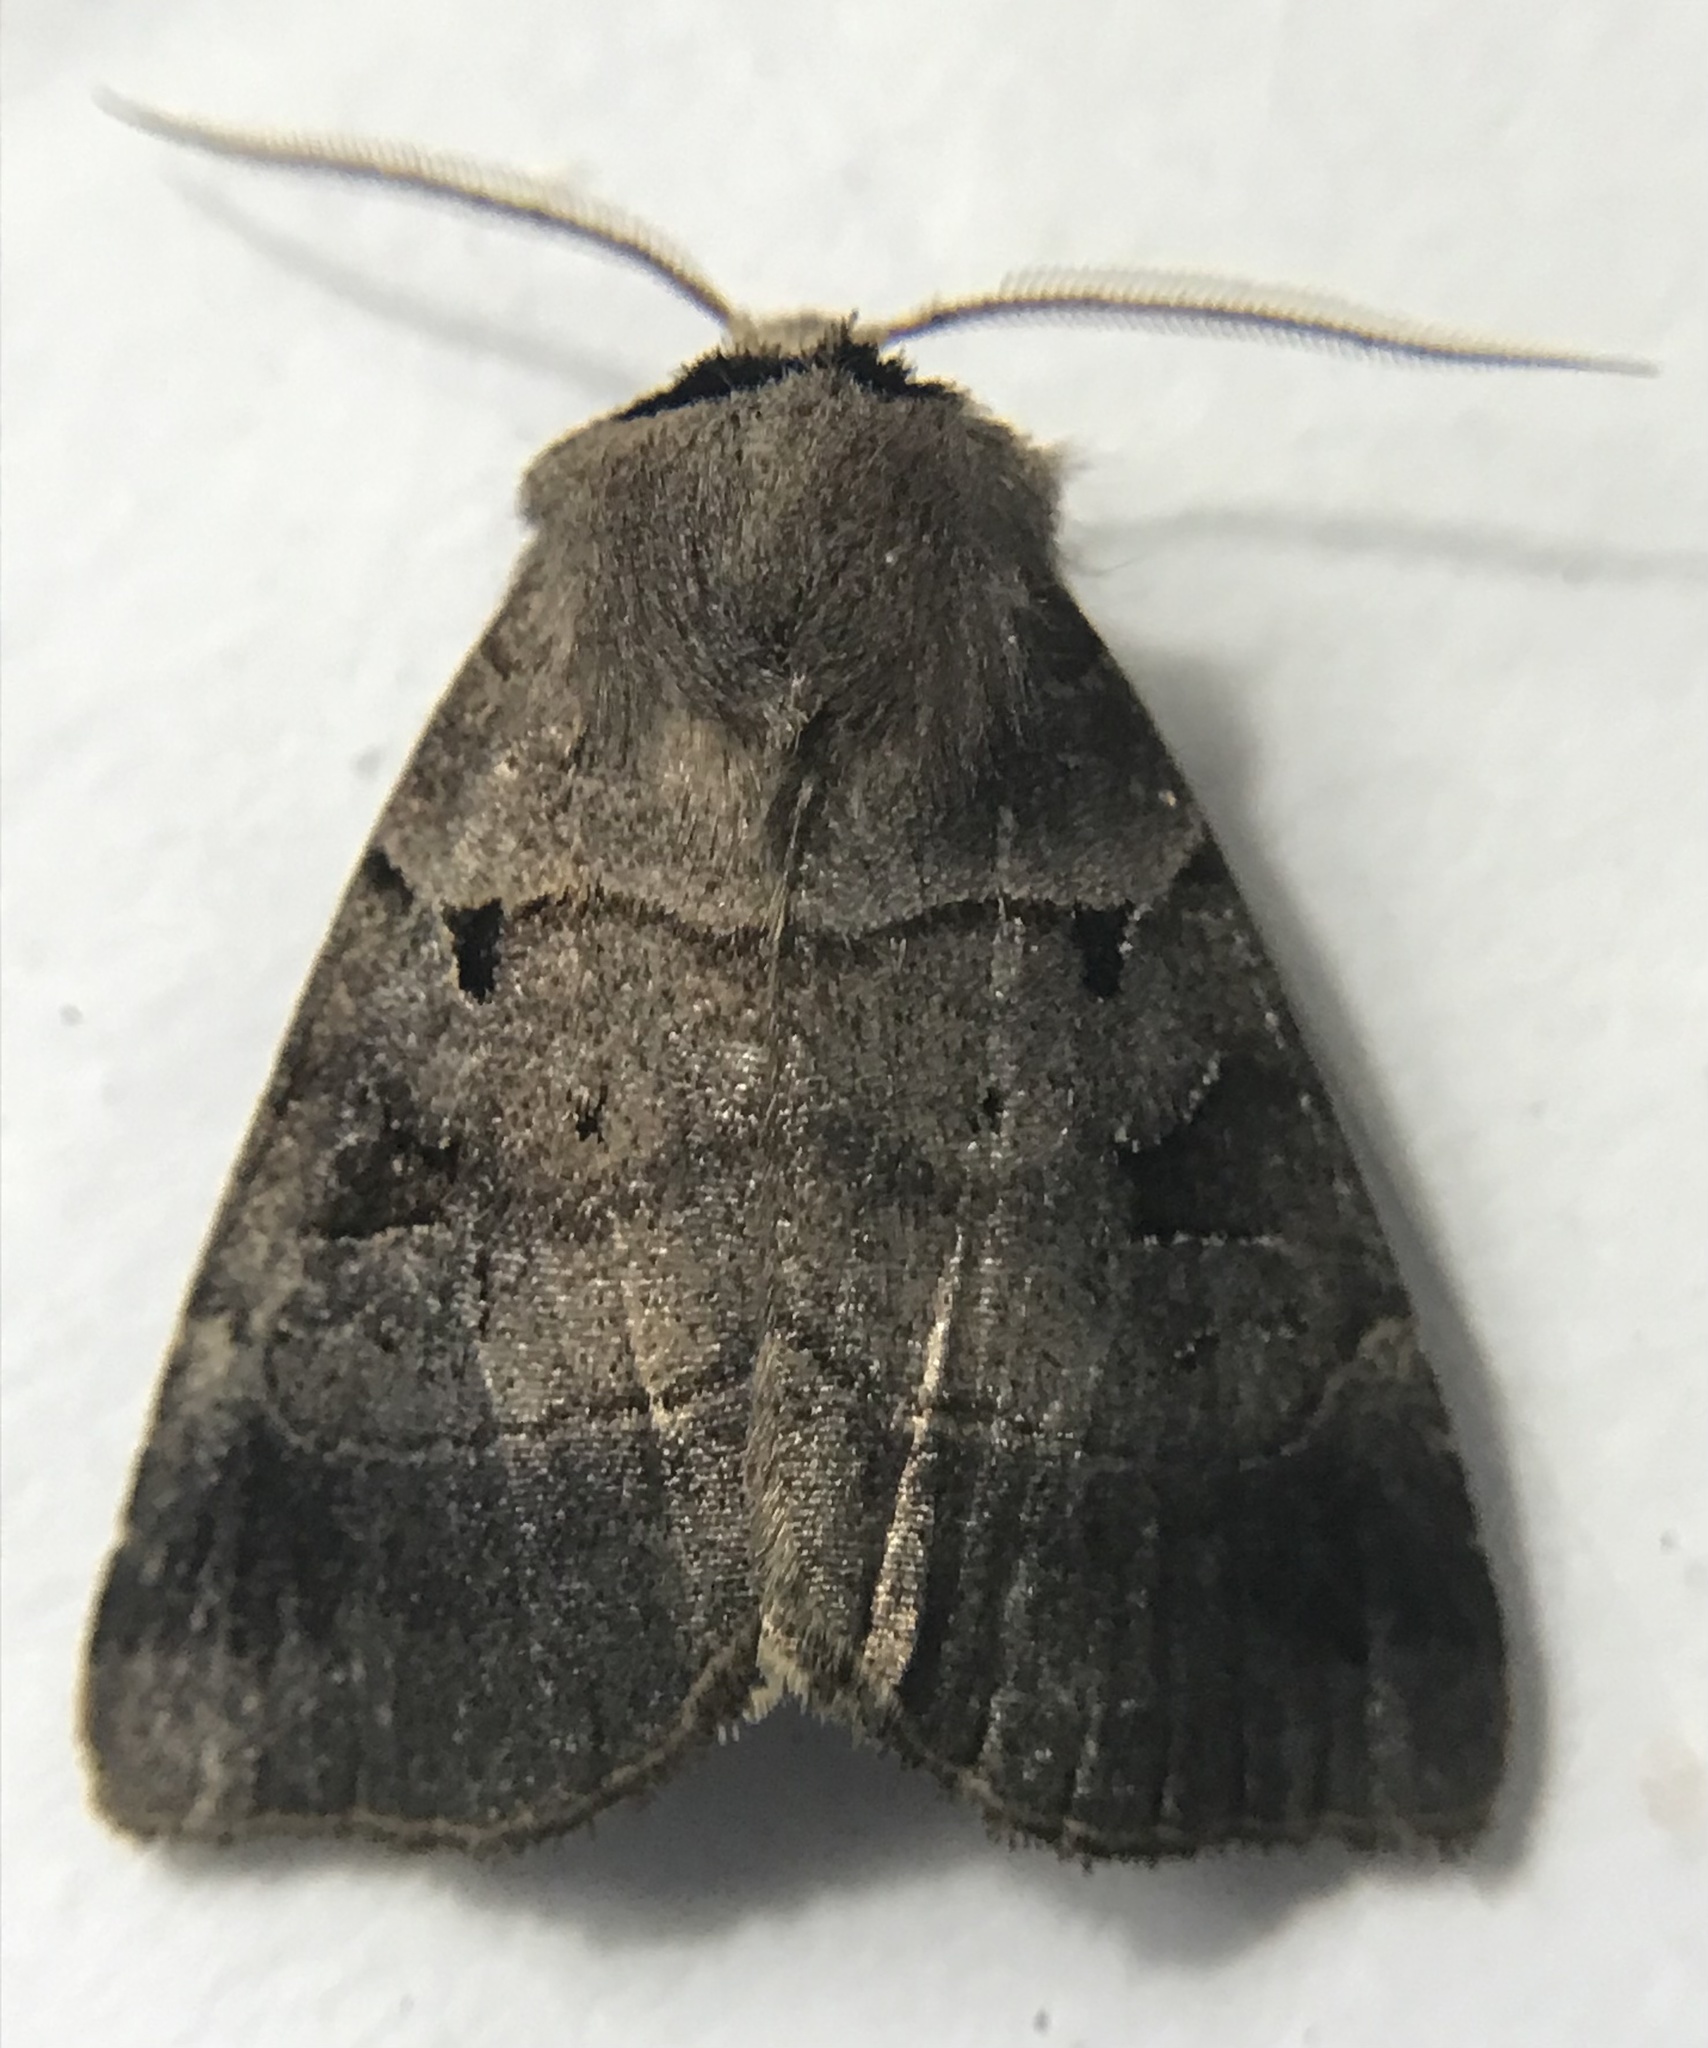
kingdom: Animalia
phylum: Arthropoda
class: Insecta
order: Lepidoptera
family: Noctuidae
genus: Agnorisma
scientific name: Agnorisma badinodis
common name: Pale-banded dart
